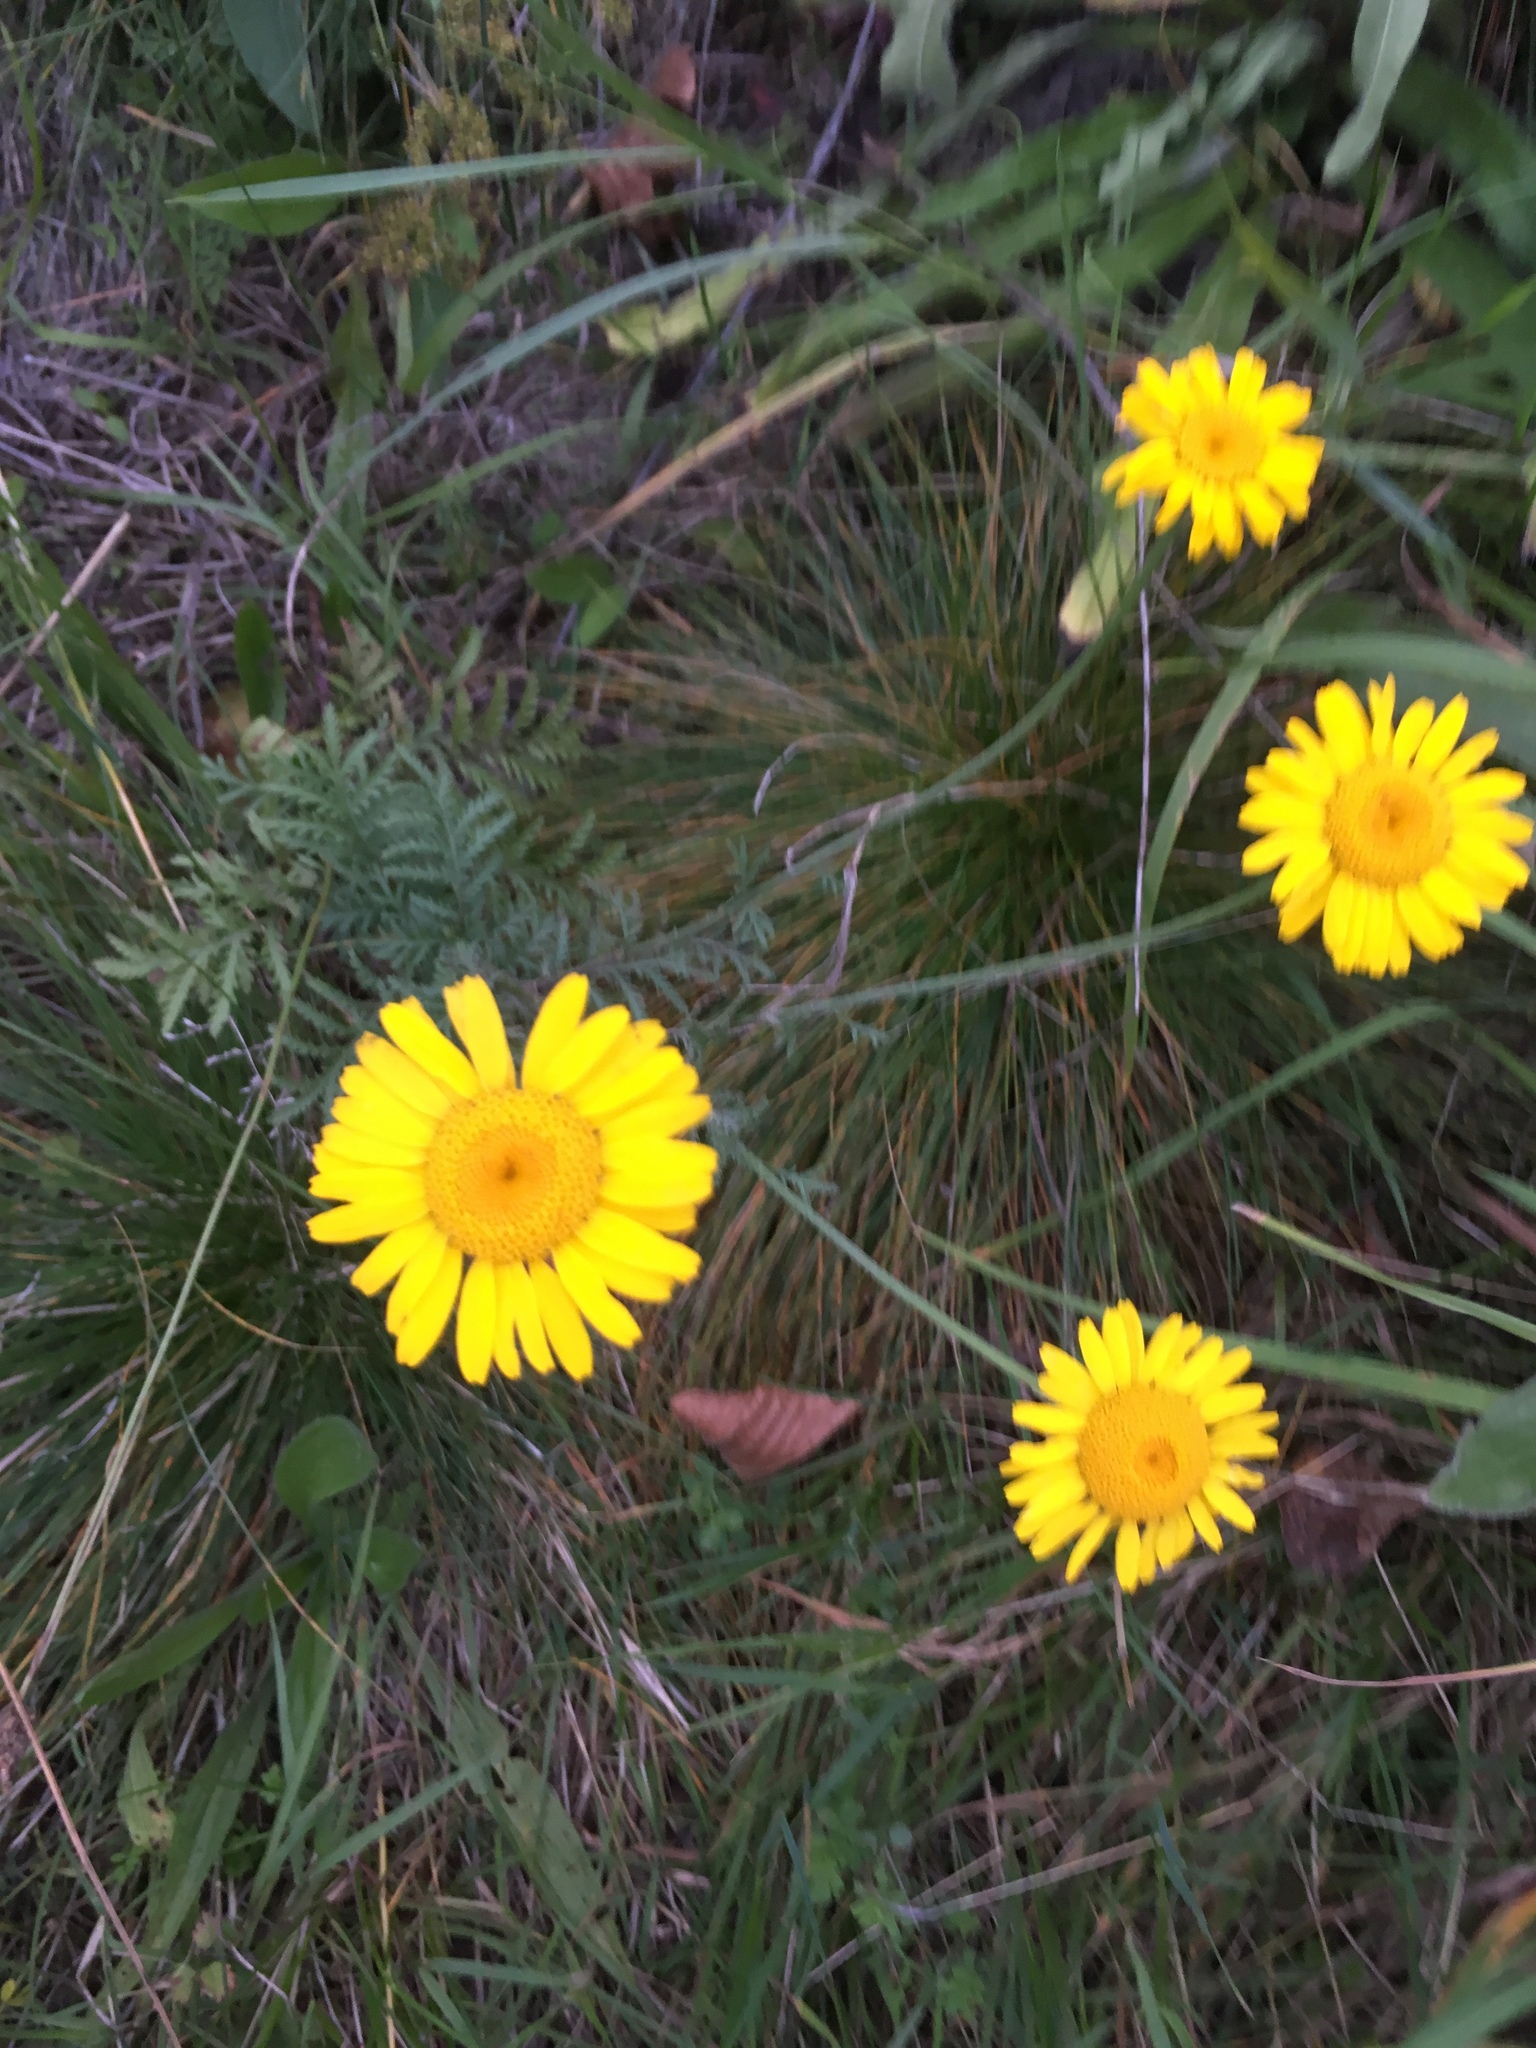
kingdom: Plantae
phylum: Tracheophyta
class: Magnoliopsida
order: Asterales
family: Asteraceae
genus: Cota
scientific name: Cota tinctoria
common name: Golden chamomile
